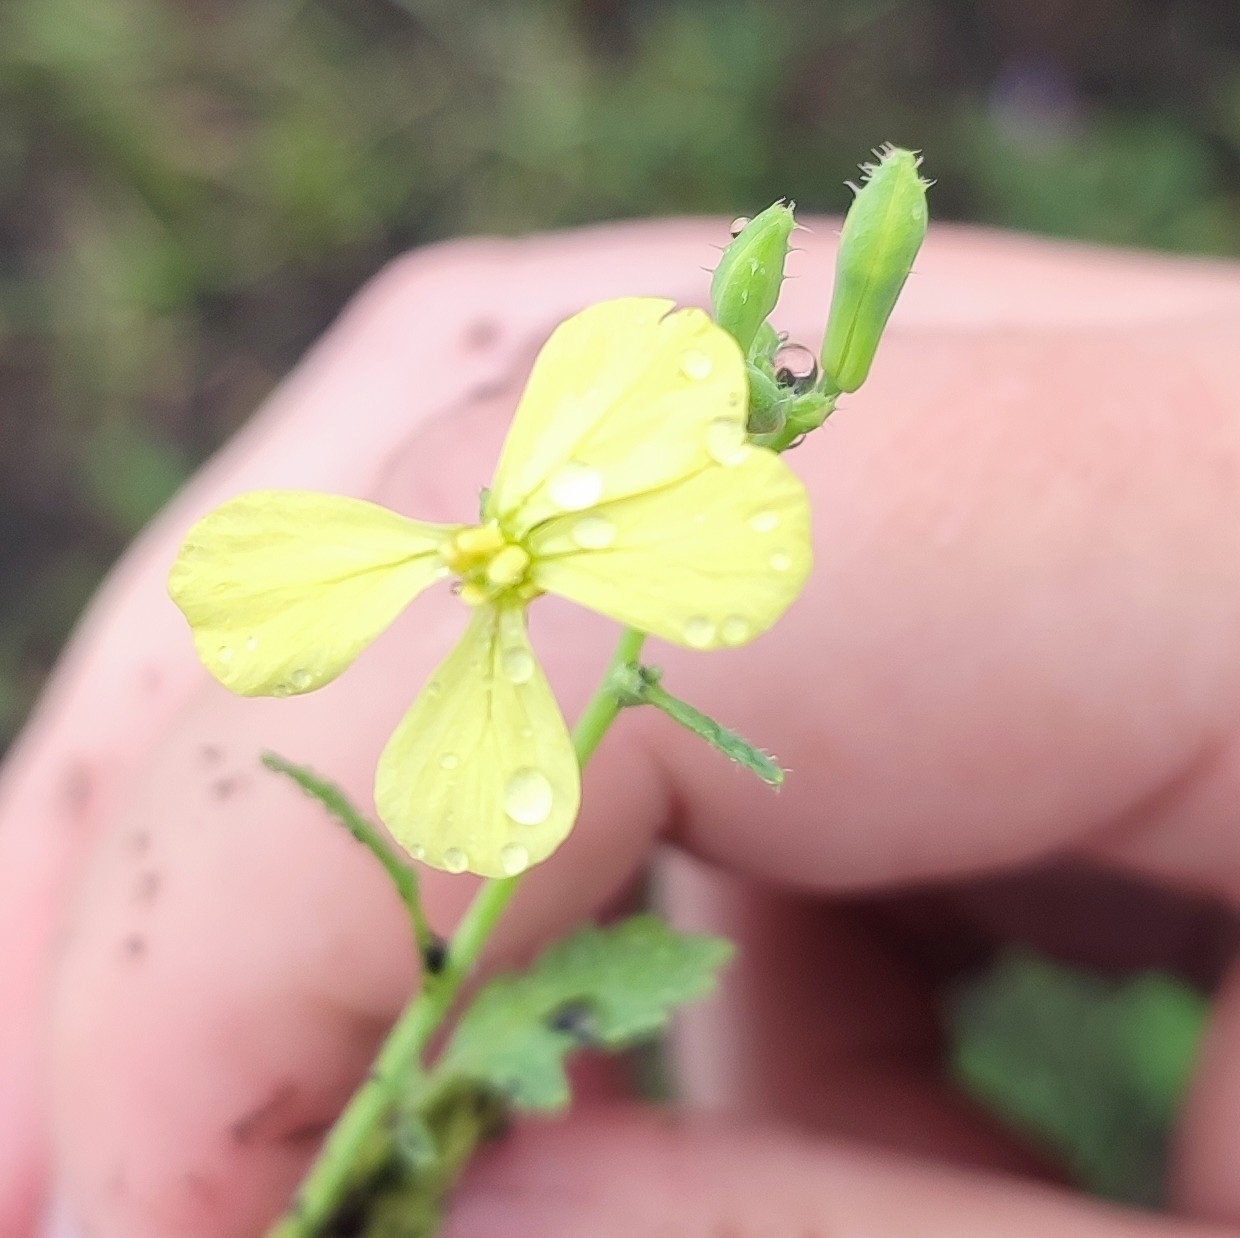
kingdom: Plantae
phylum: Tracheophyta
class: Magnoliopsida
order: Brassicales
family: Brassicaceae
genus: Raphanus
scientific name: Raphanus raphanistrum
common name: Wild radish
